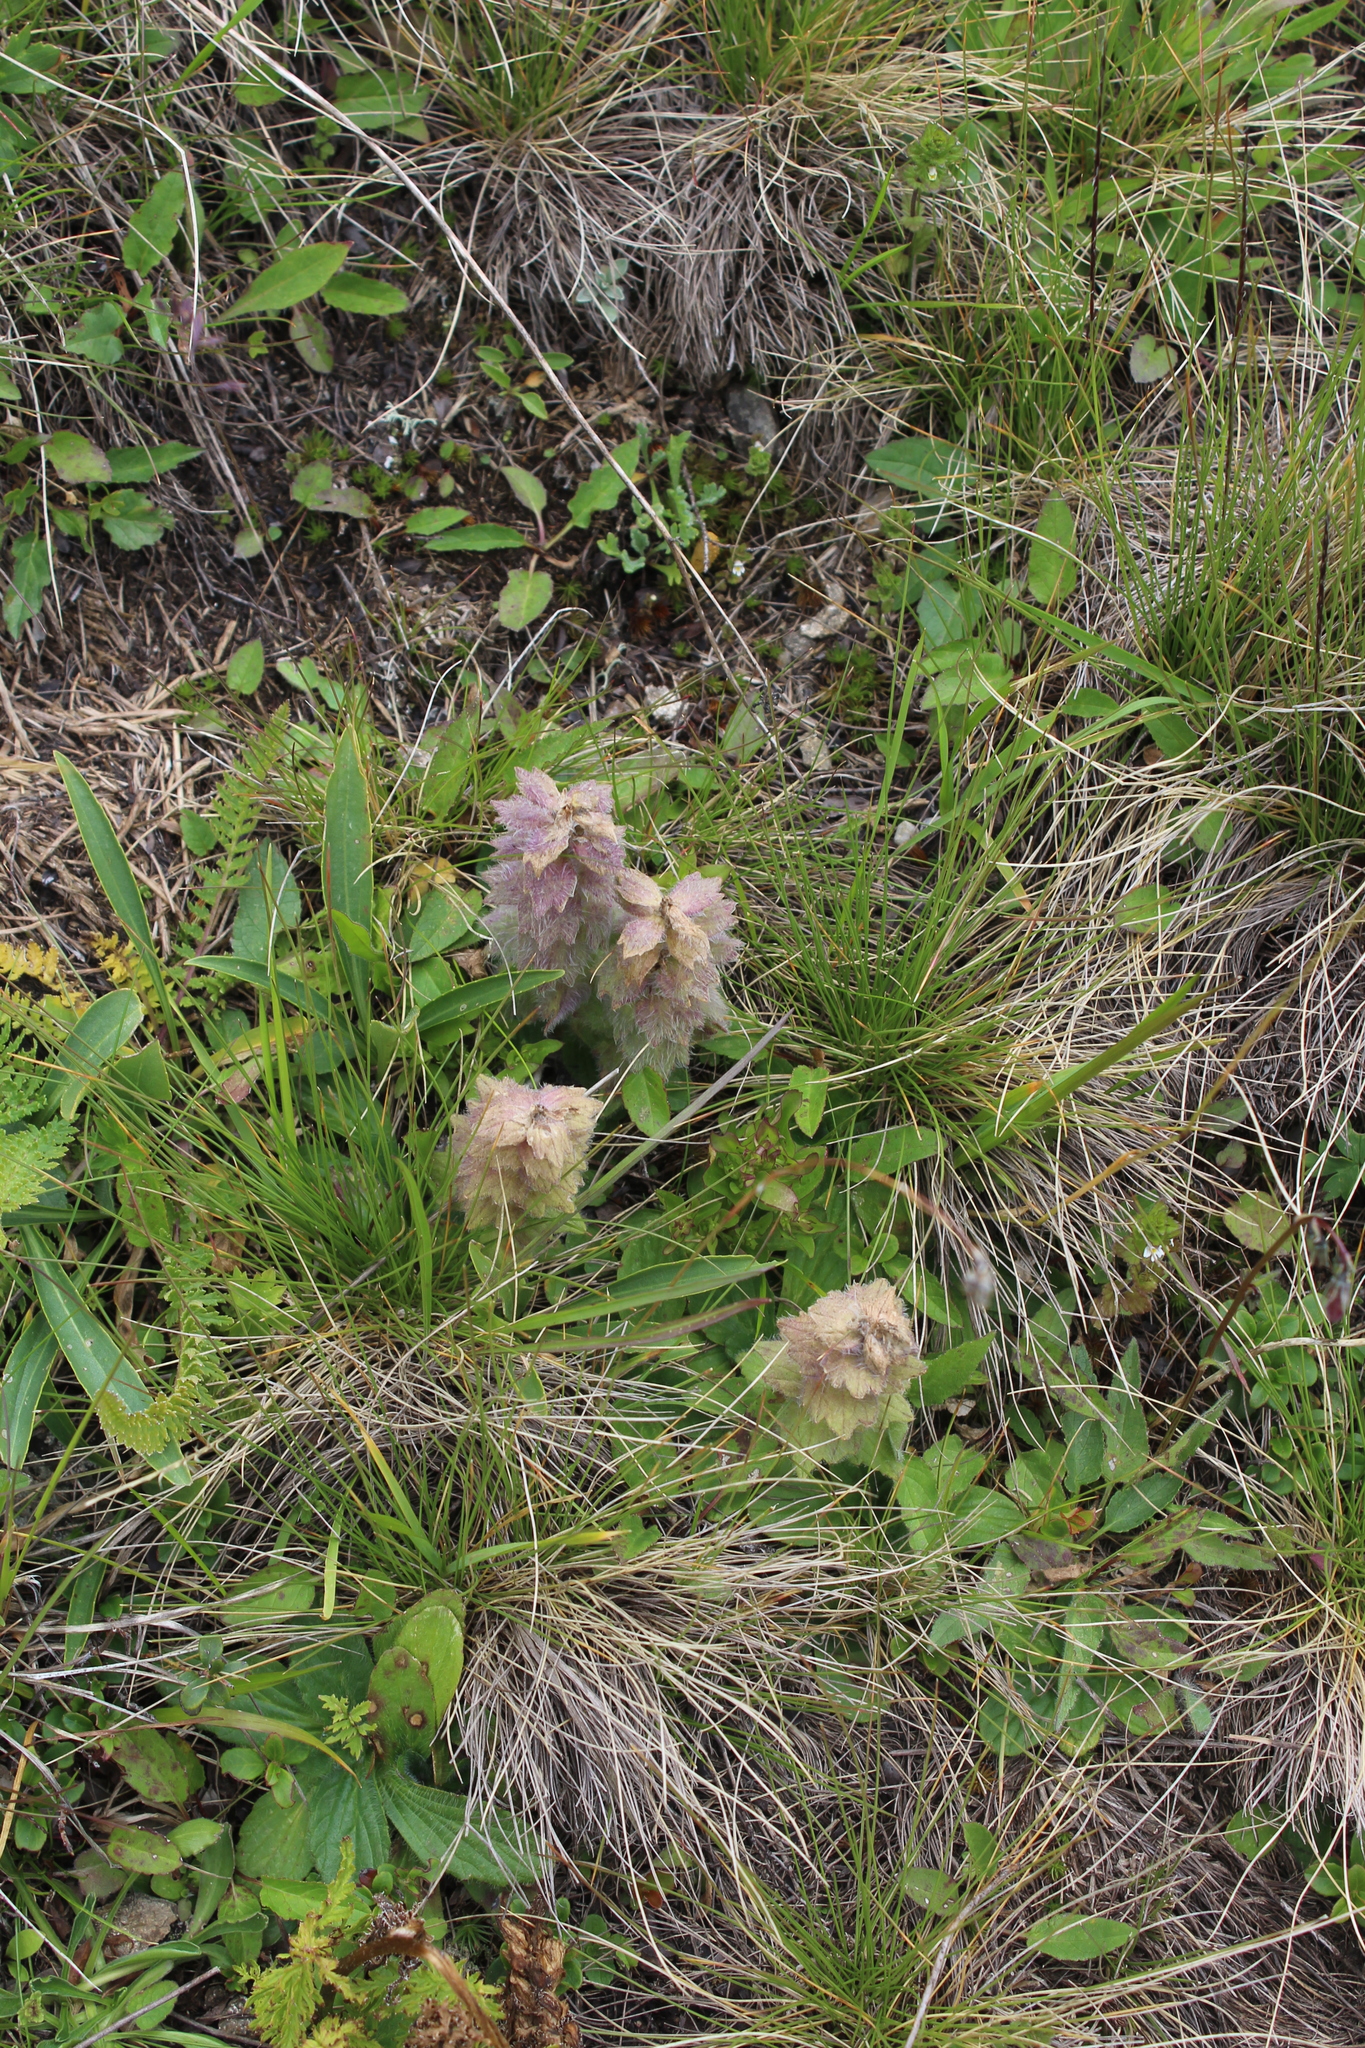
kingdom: Plantae
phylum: Tracheophyta
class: Magnoliopsida
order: Lamiales
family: Lamiaceae
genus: Ajuga
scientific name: Ajuga orientalis
